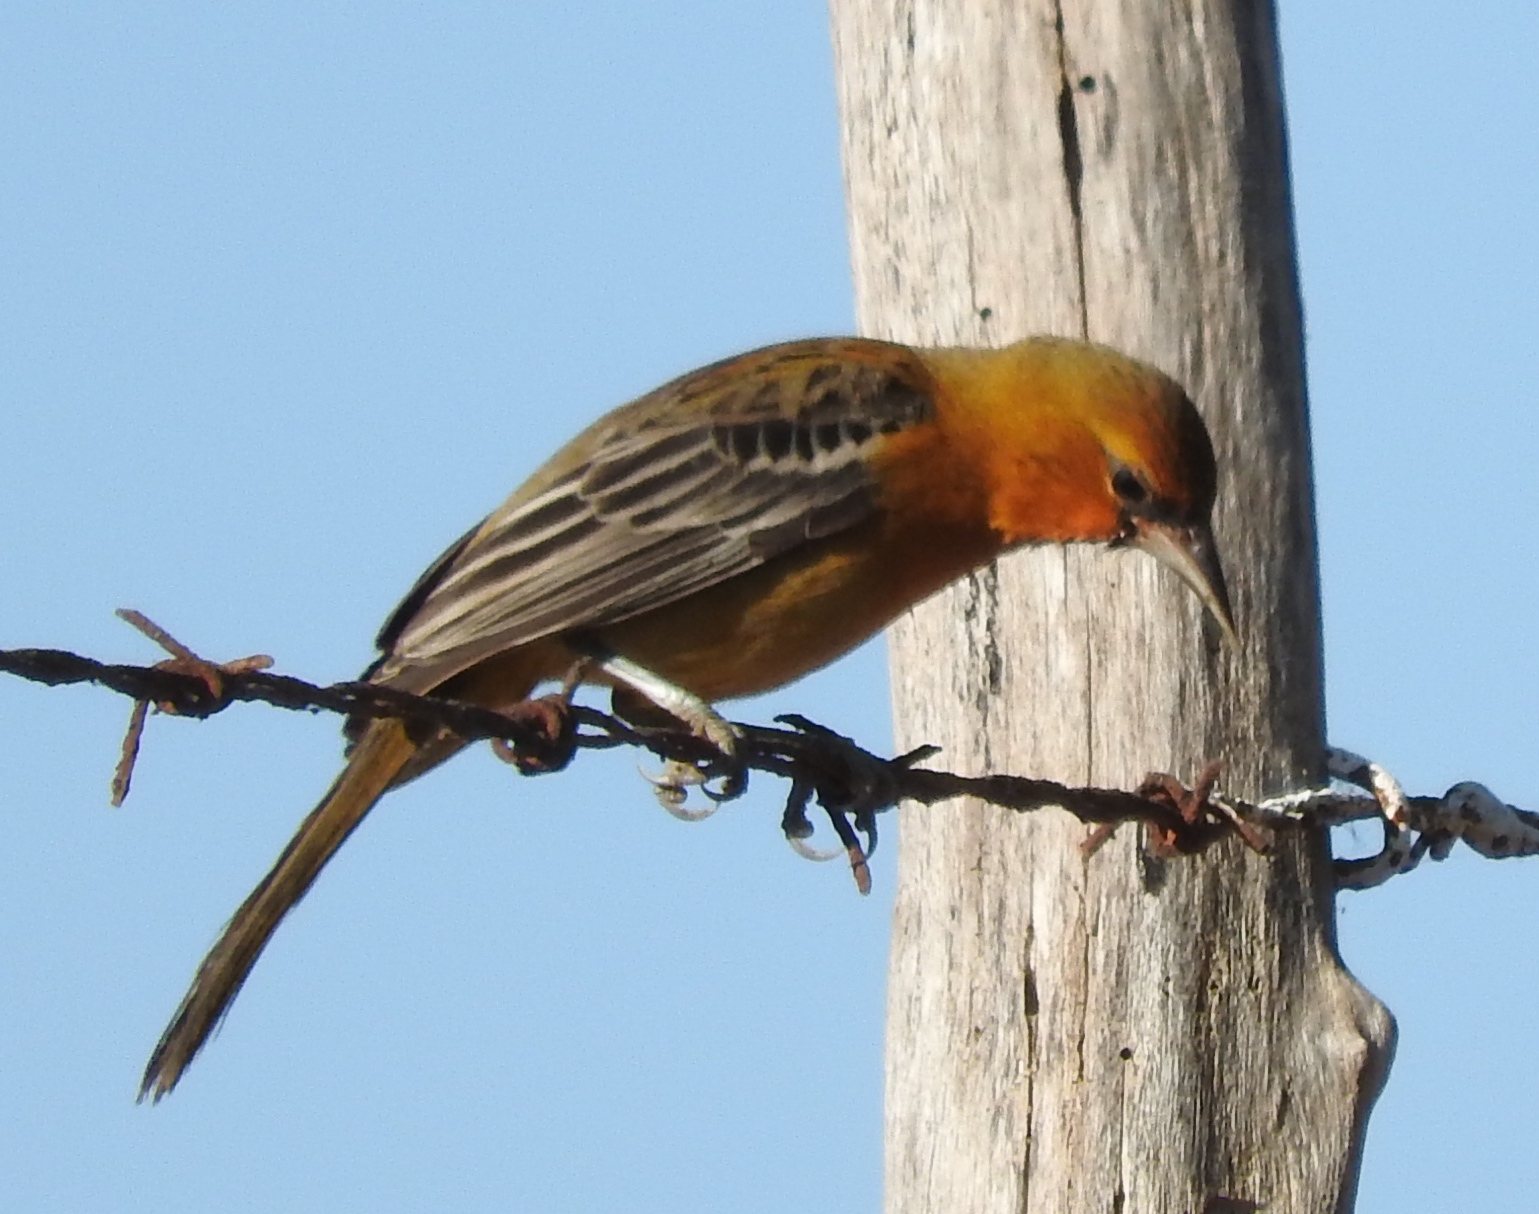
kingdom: Animalia
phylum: Chordata
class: Aves
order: Passeriformes
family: Icteridae
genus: Icterus
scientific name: Icterus pustulatus
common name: Streak-backed oriole
